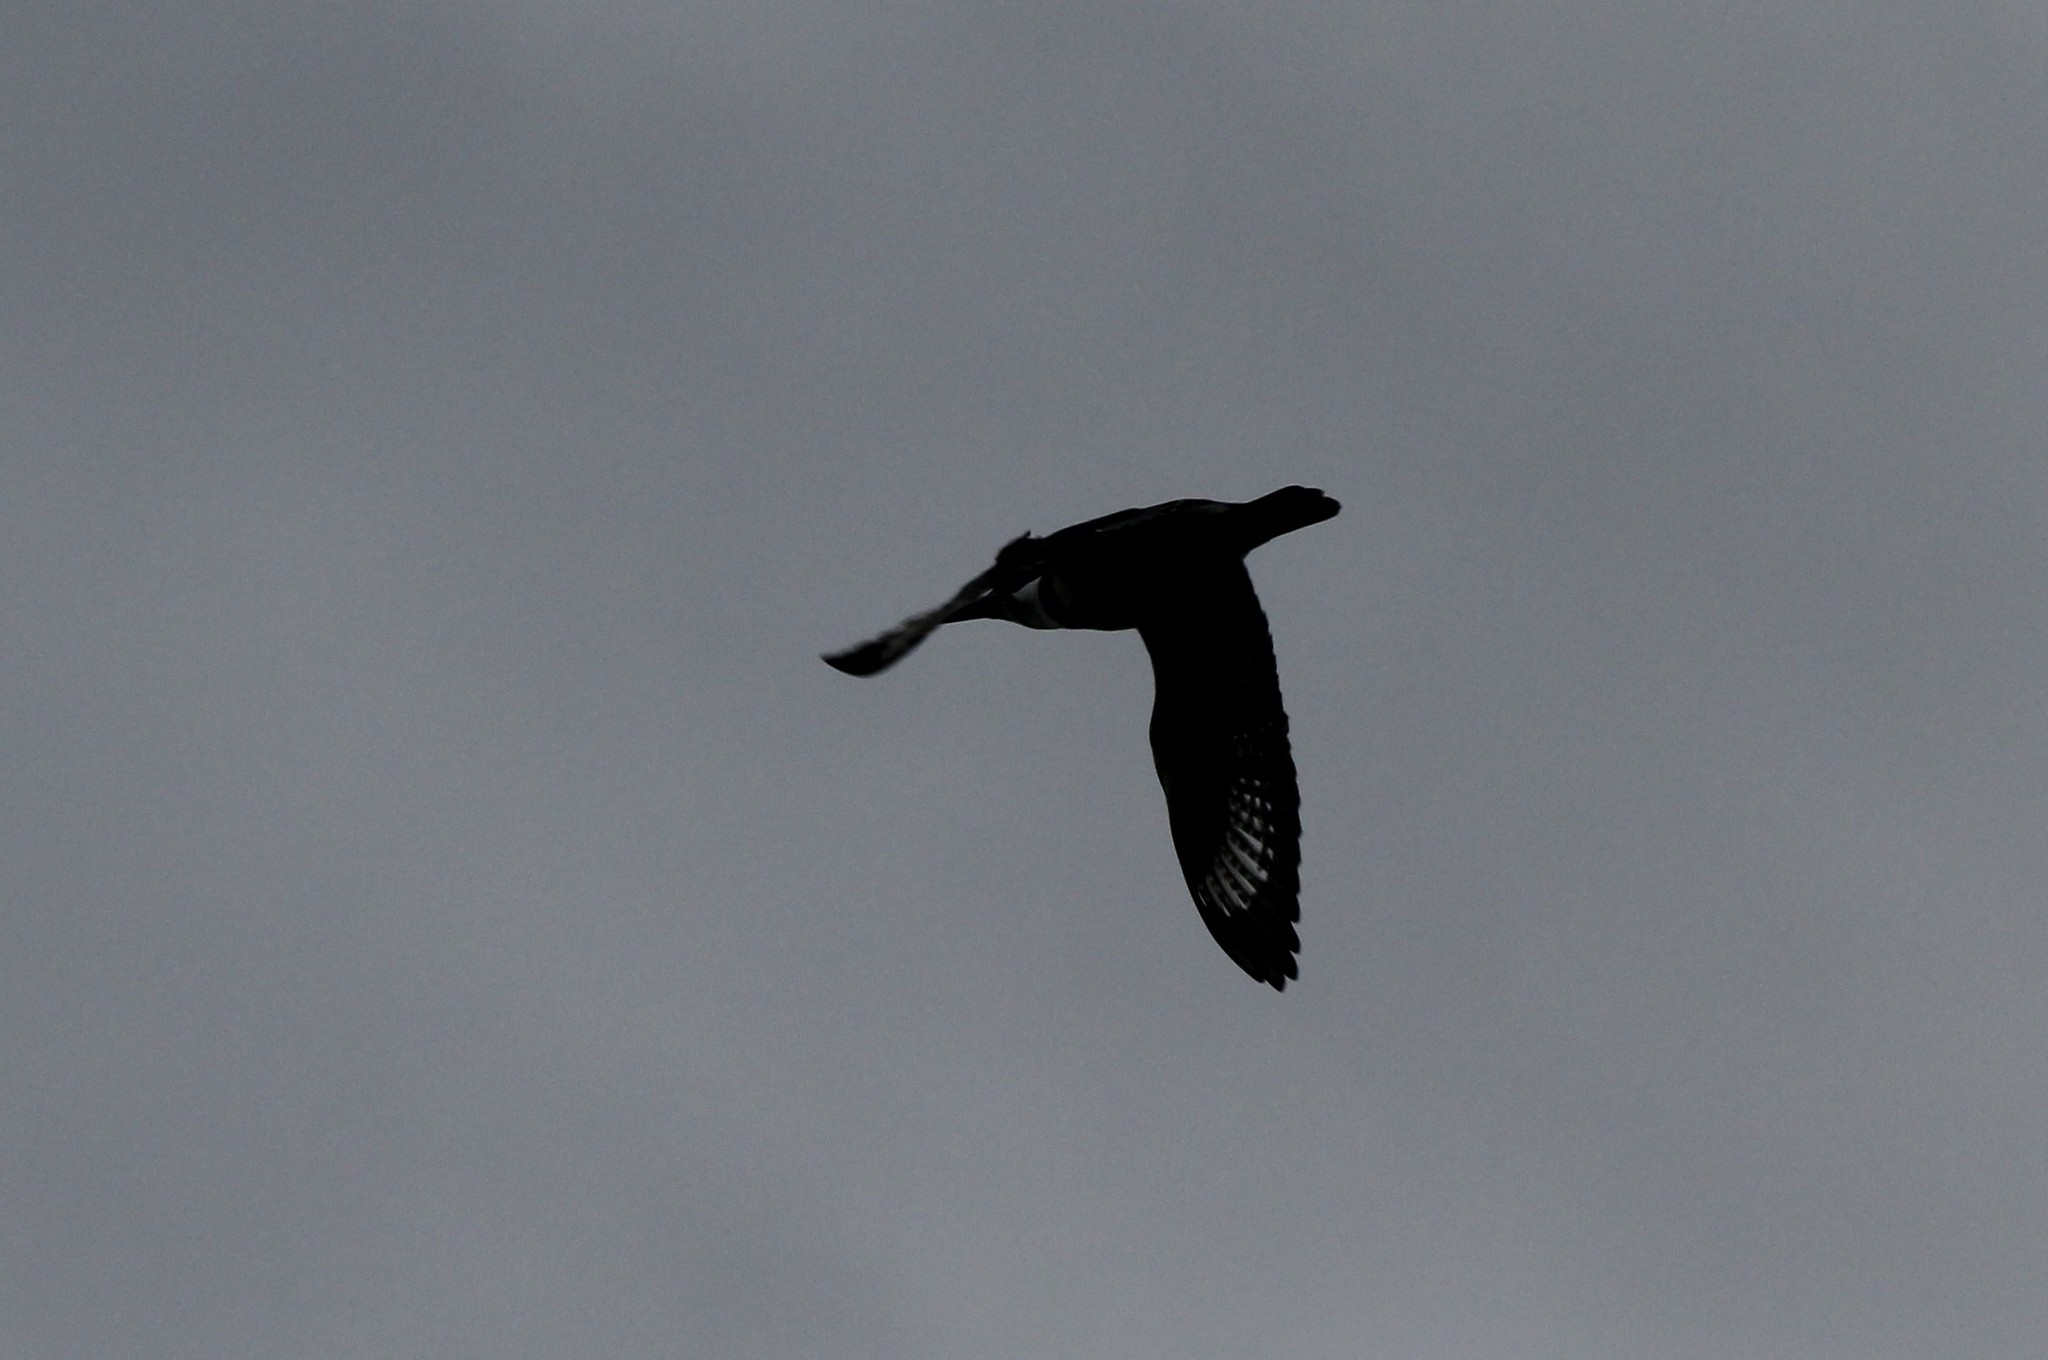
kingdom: Animalia
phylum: Chordata
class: Aves
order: Coraciiformes
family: Alcedinidae
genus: Megaceryle
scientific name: Megaceryle alcyon
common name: Belted kingfisher
